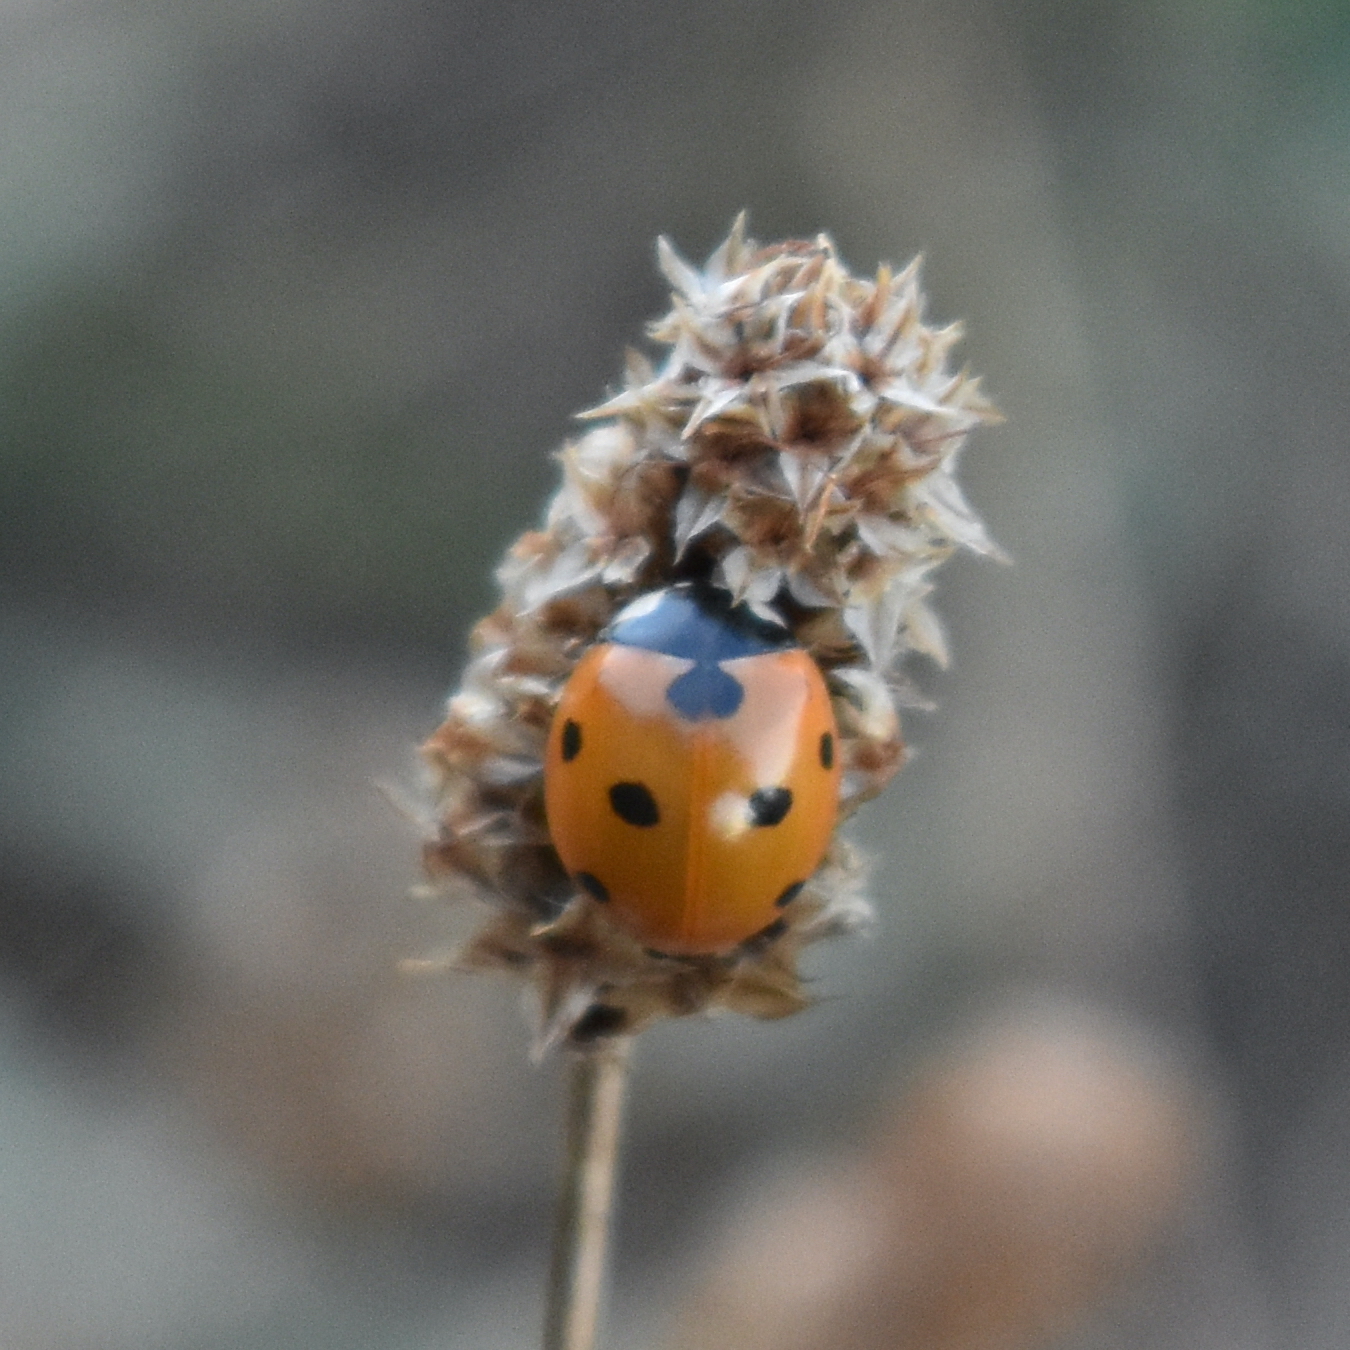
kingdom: Animalia
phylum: Arthropoda
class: Insecta
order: Coleoptera
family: Coccinellidae
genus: Coccinella
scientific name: Coccinella septempunctata
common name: Sevenspotted lady beetle
